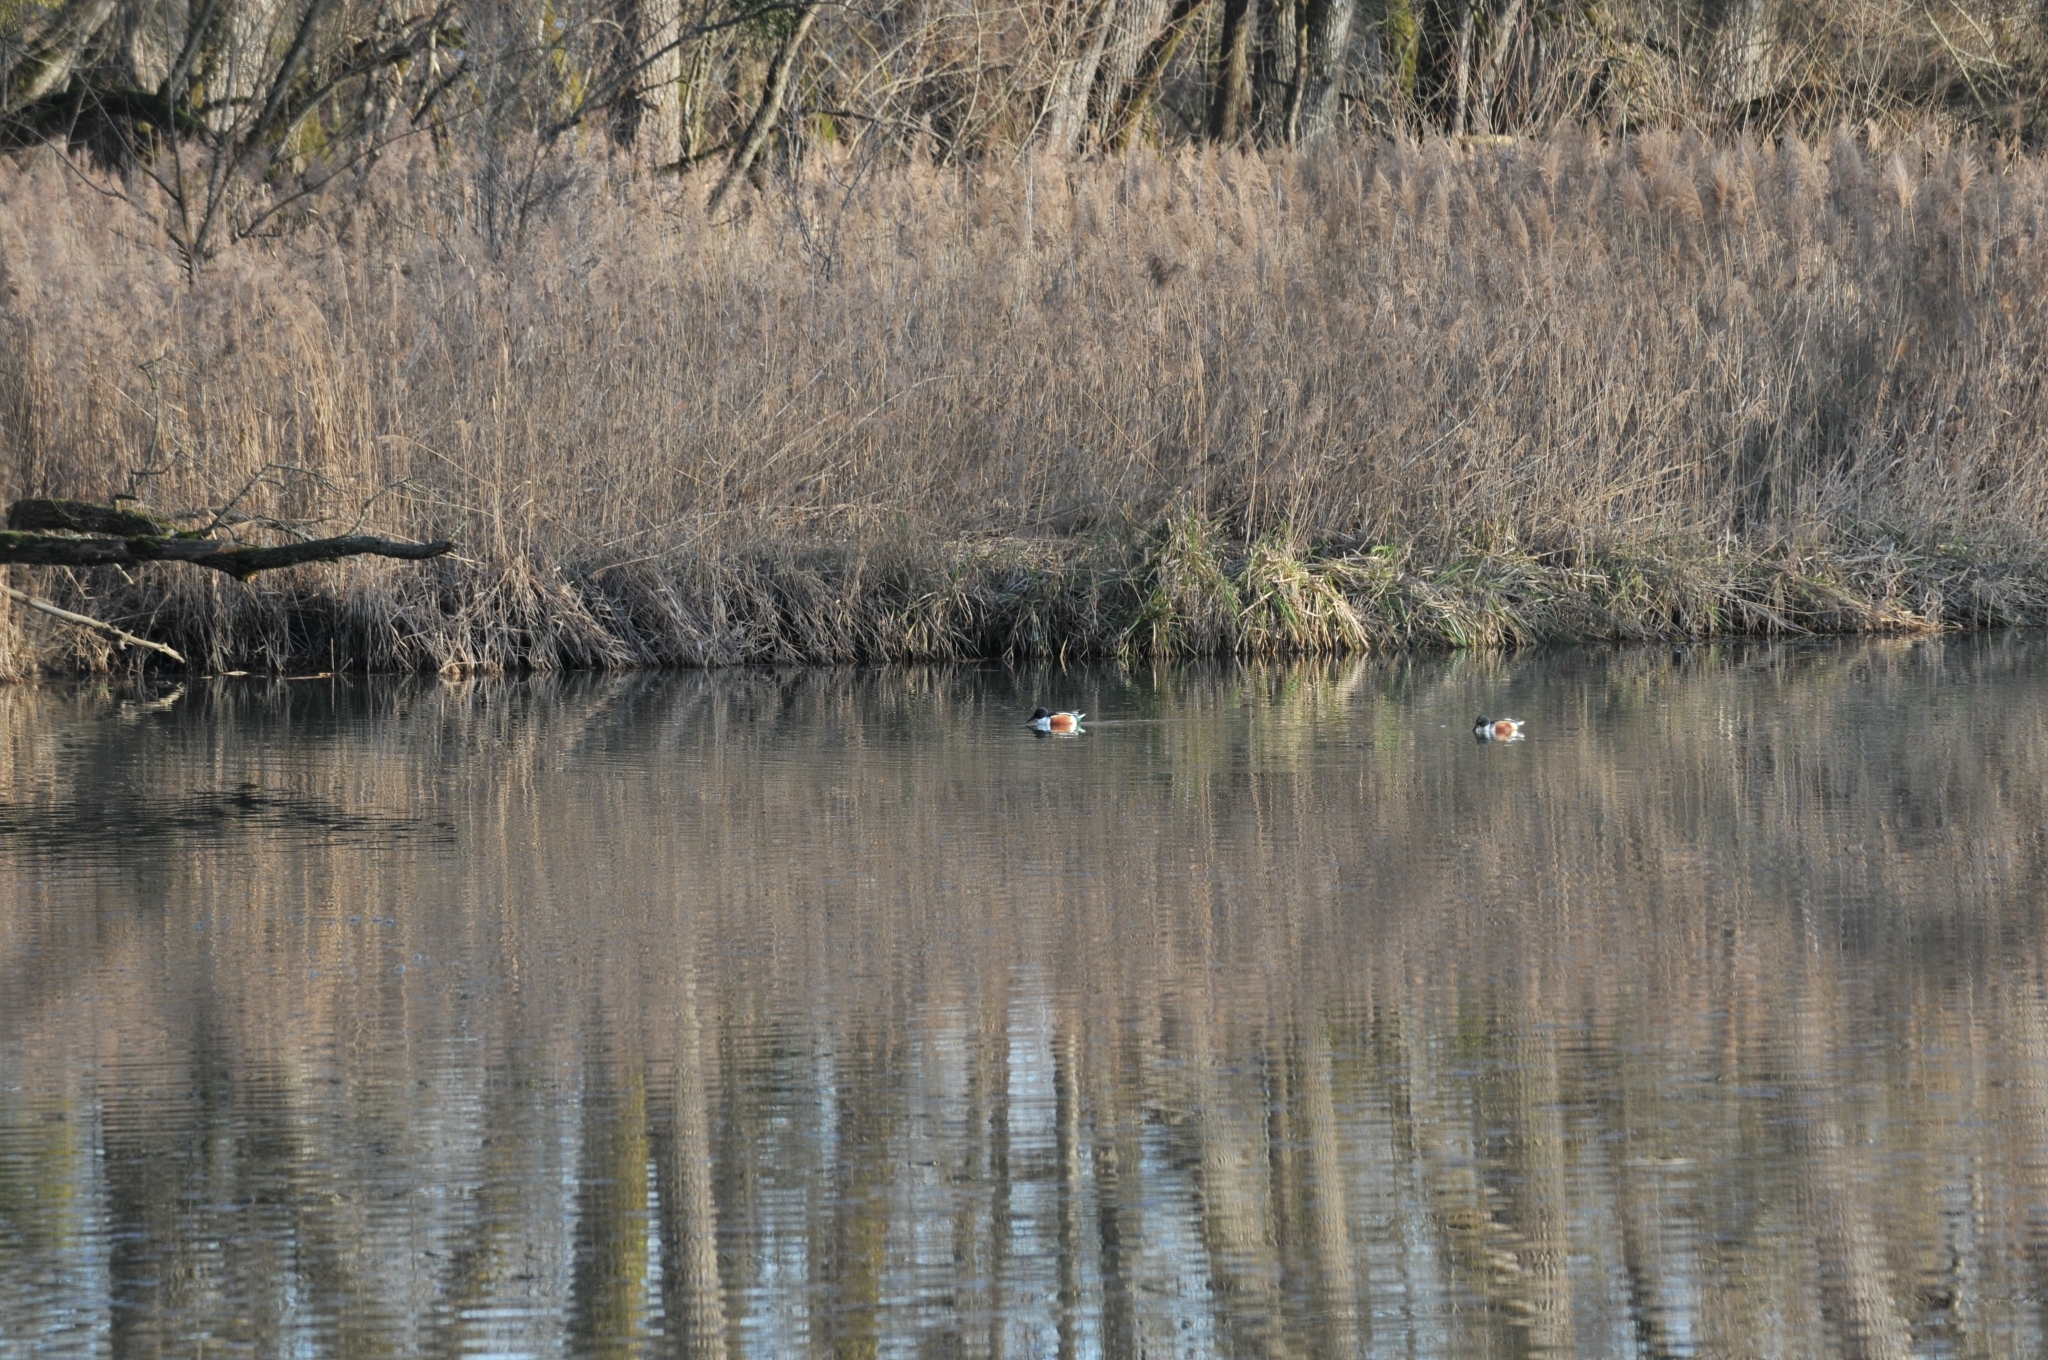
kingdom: Animalia
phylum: Chordata
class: Aves
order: Anseriformes
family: Anatidae
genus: Spatula
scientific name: Spatula clypeata
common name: Northern shoveler
